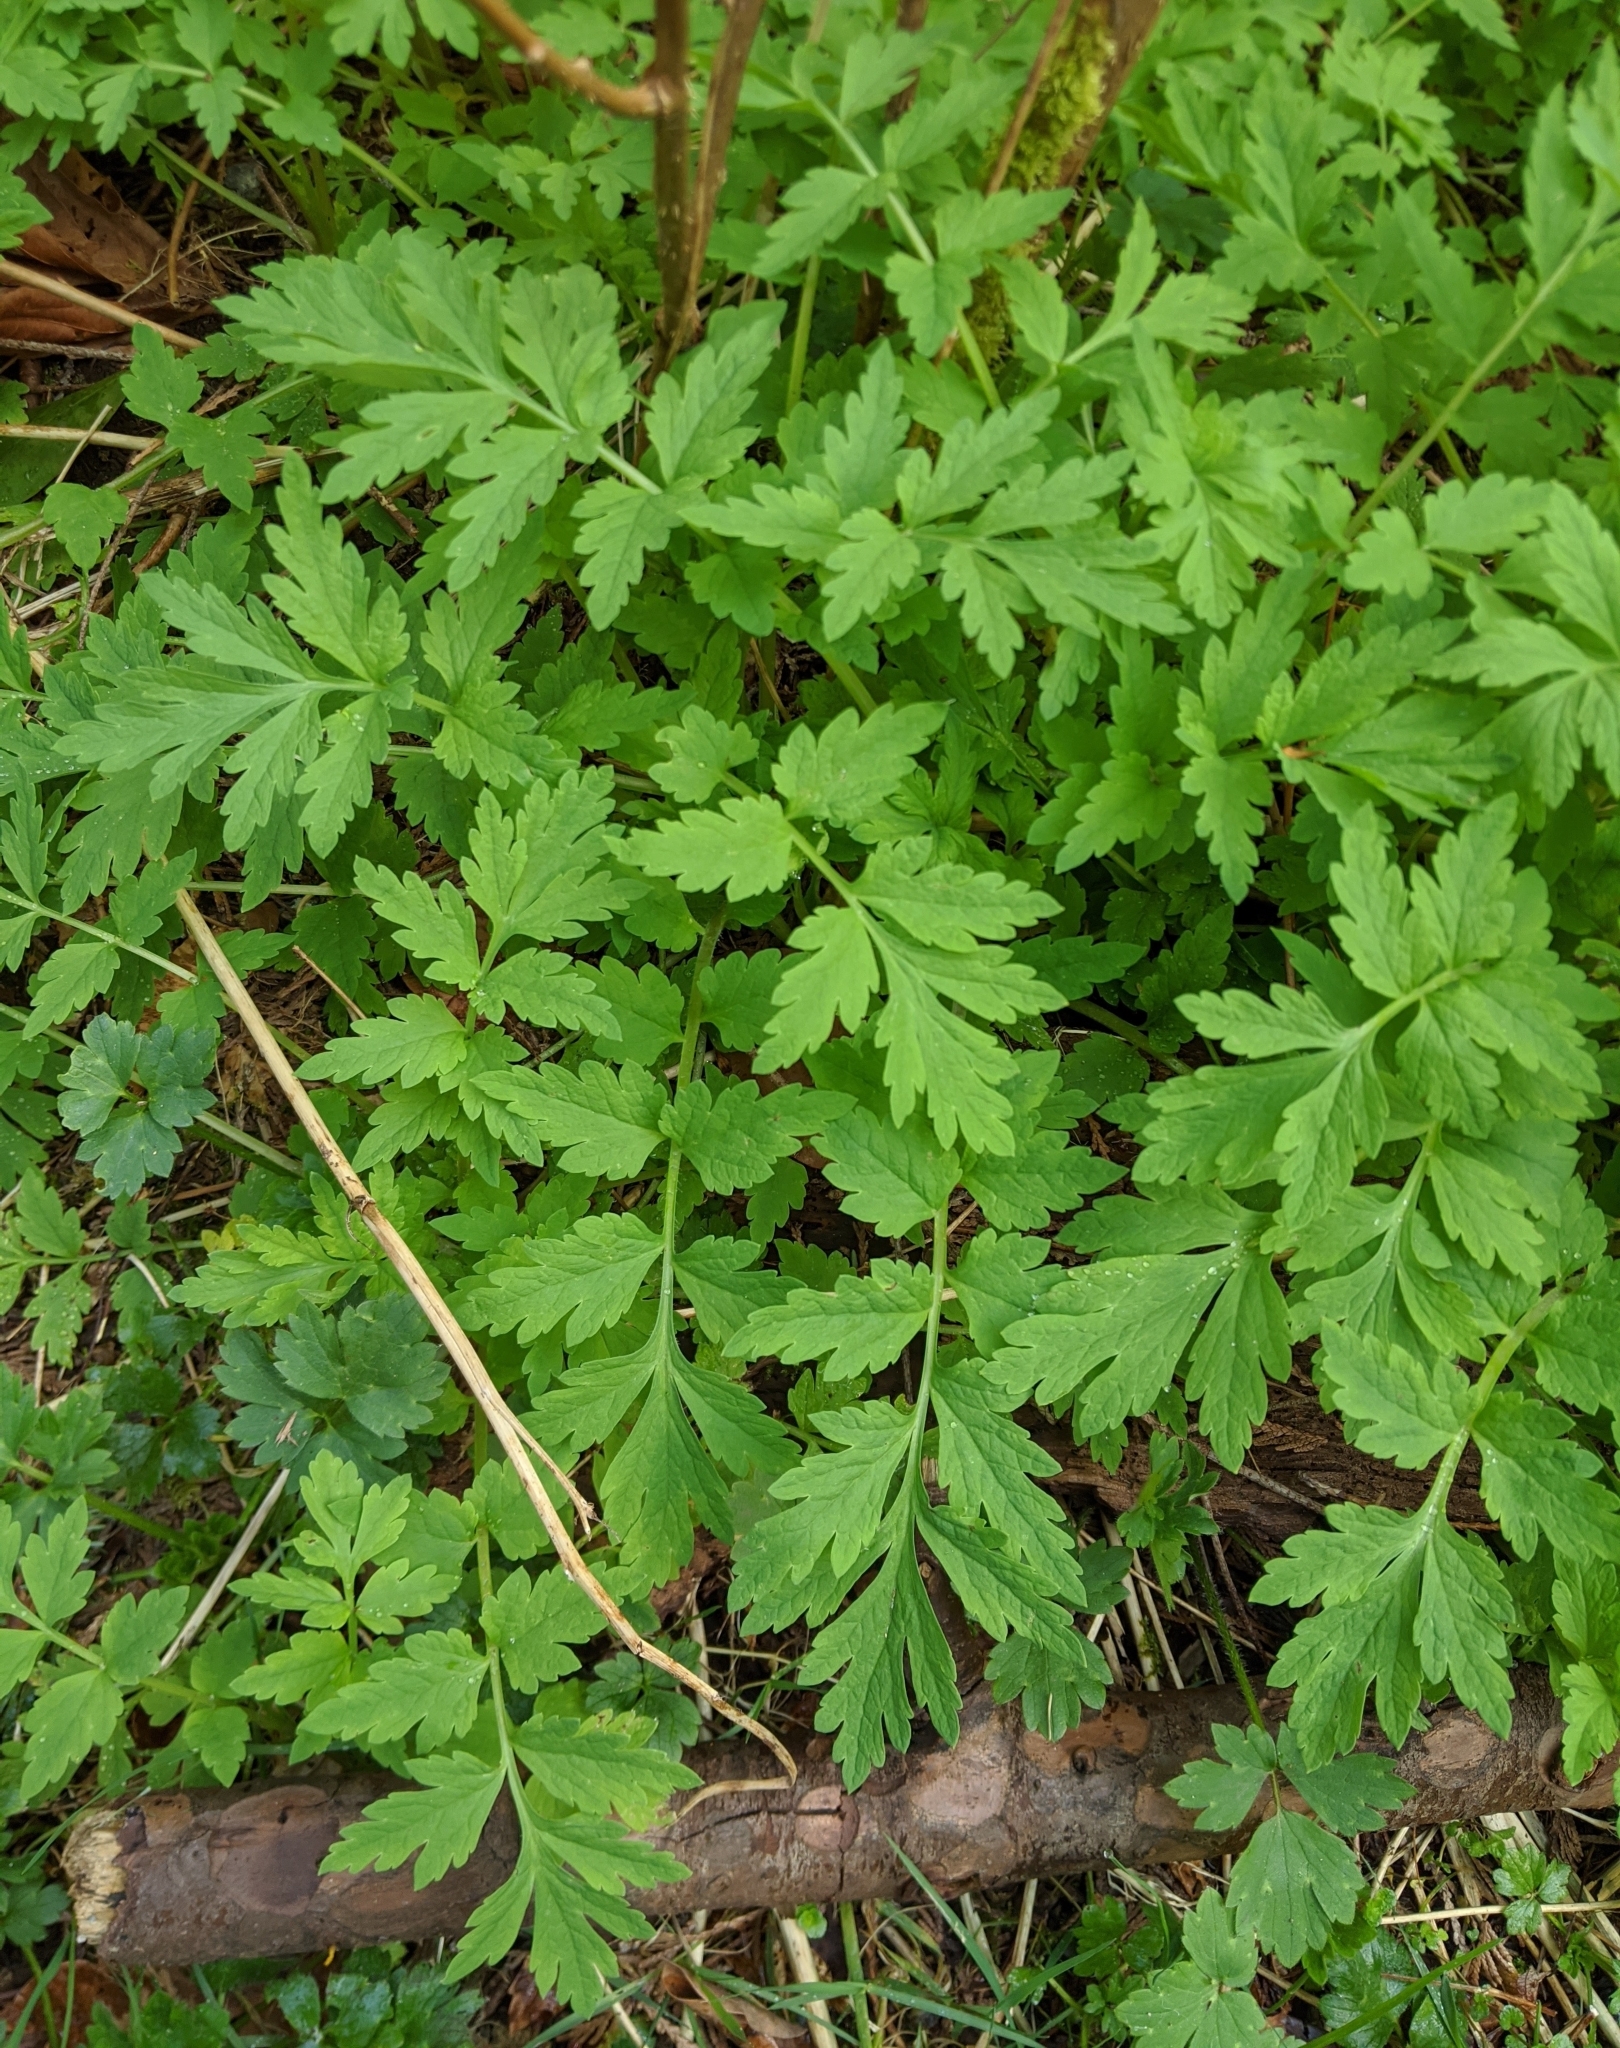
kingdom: Plantae
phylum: Tracheophyta
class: Magnoliopsida
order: Ranunculales
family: Papaveraceae
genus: Papaver
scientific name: Papaver cambricum
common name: Poppy
